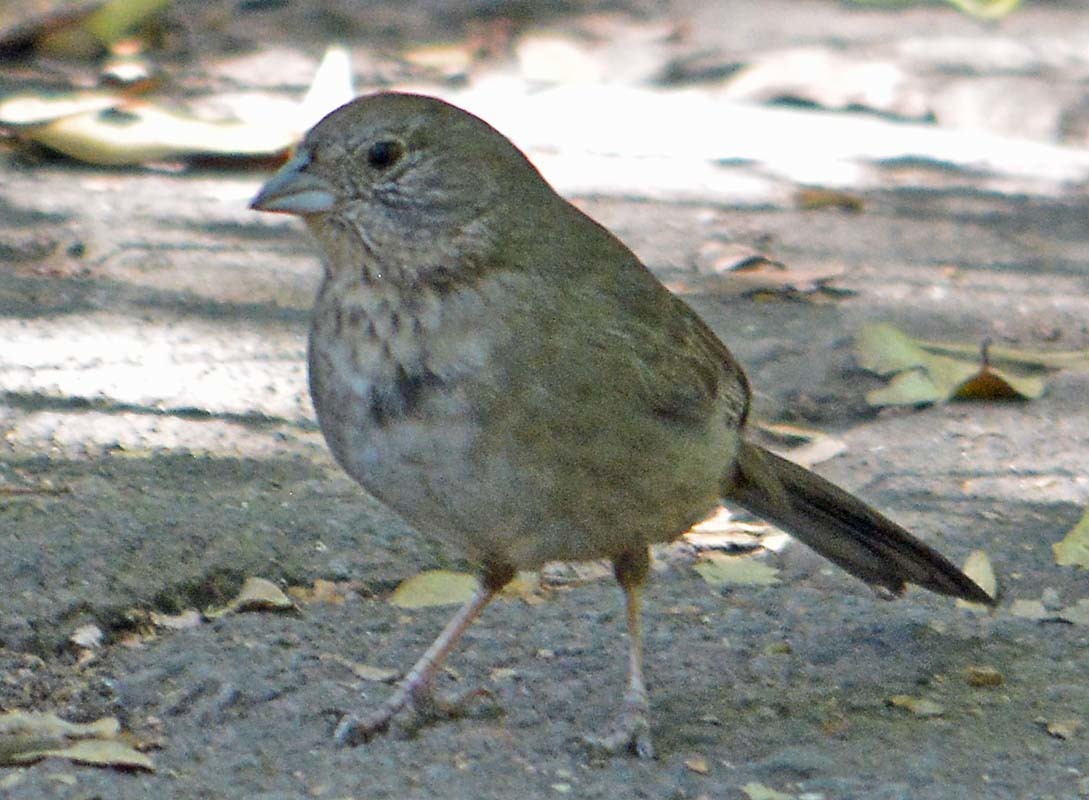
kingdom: Animalia
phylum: Chordata
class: Aves
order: Passeriformes
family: Passerellidae
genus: Melozone
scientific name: Melozone fusca
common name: Canyon towhee
